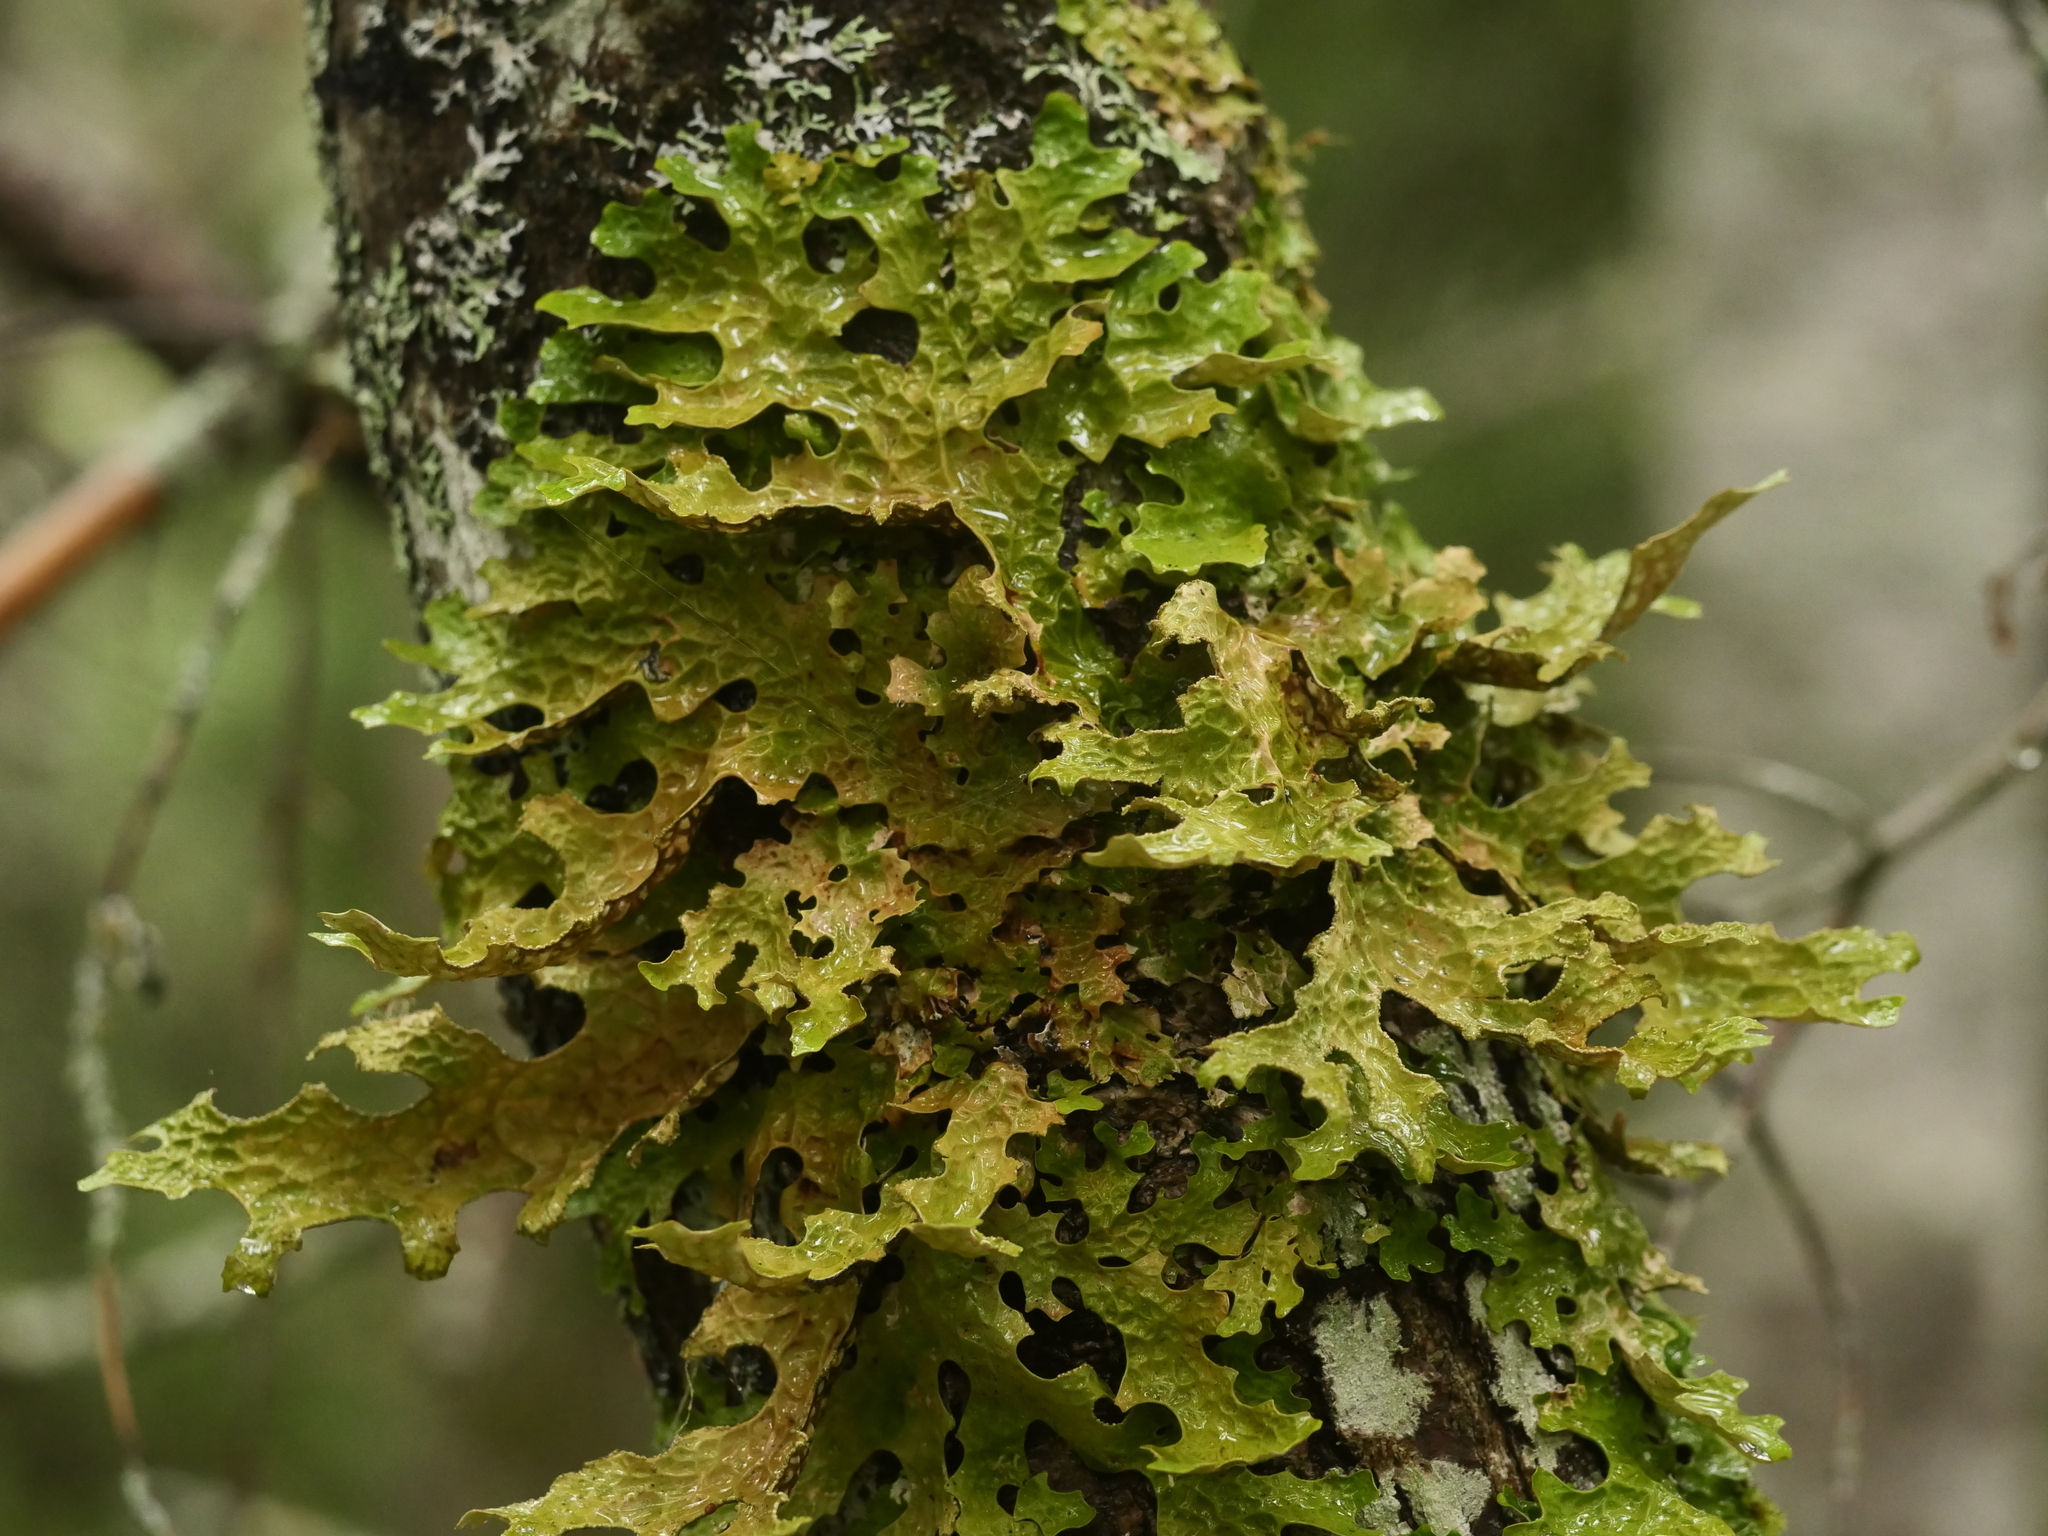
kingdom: Fungi
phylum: Ascomycota
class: Lecanoromycetes
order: Peltigerales
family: Lobariaceae
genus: Lobaria
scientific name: Lobaria pulmonaria
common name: Lungwort
